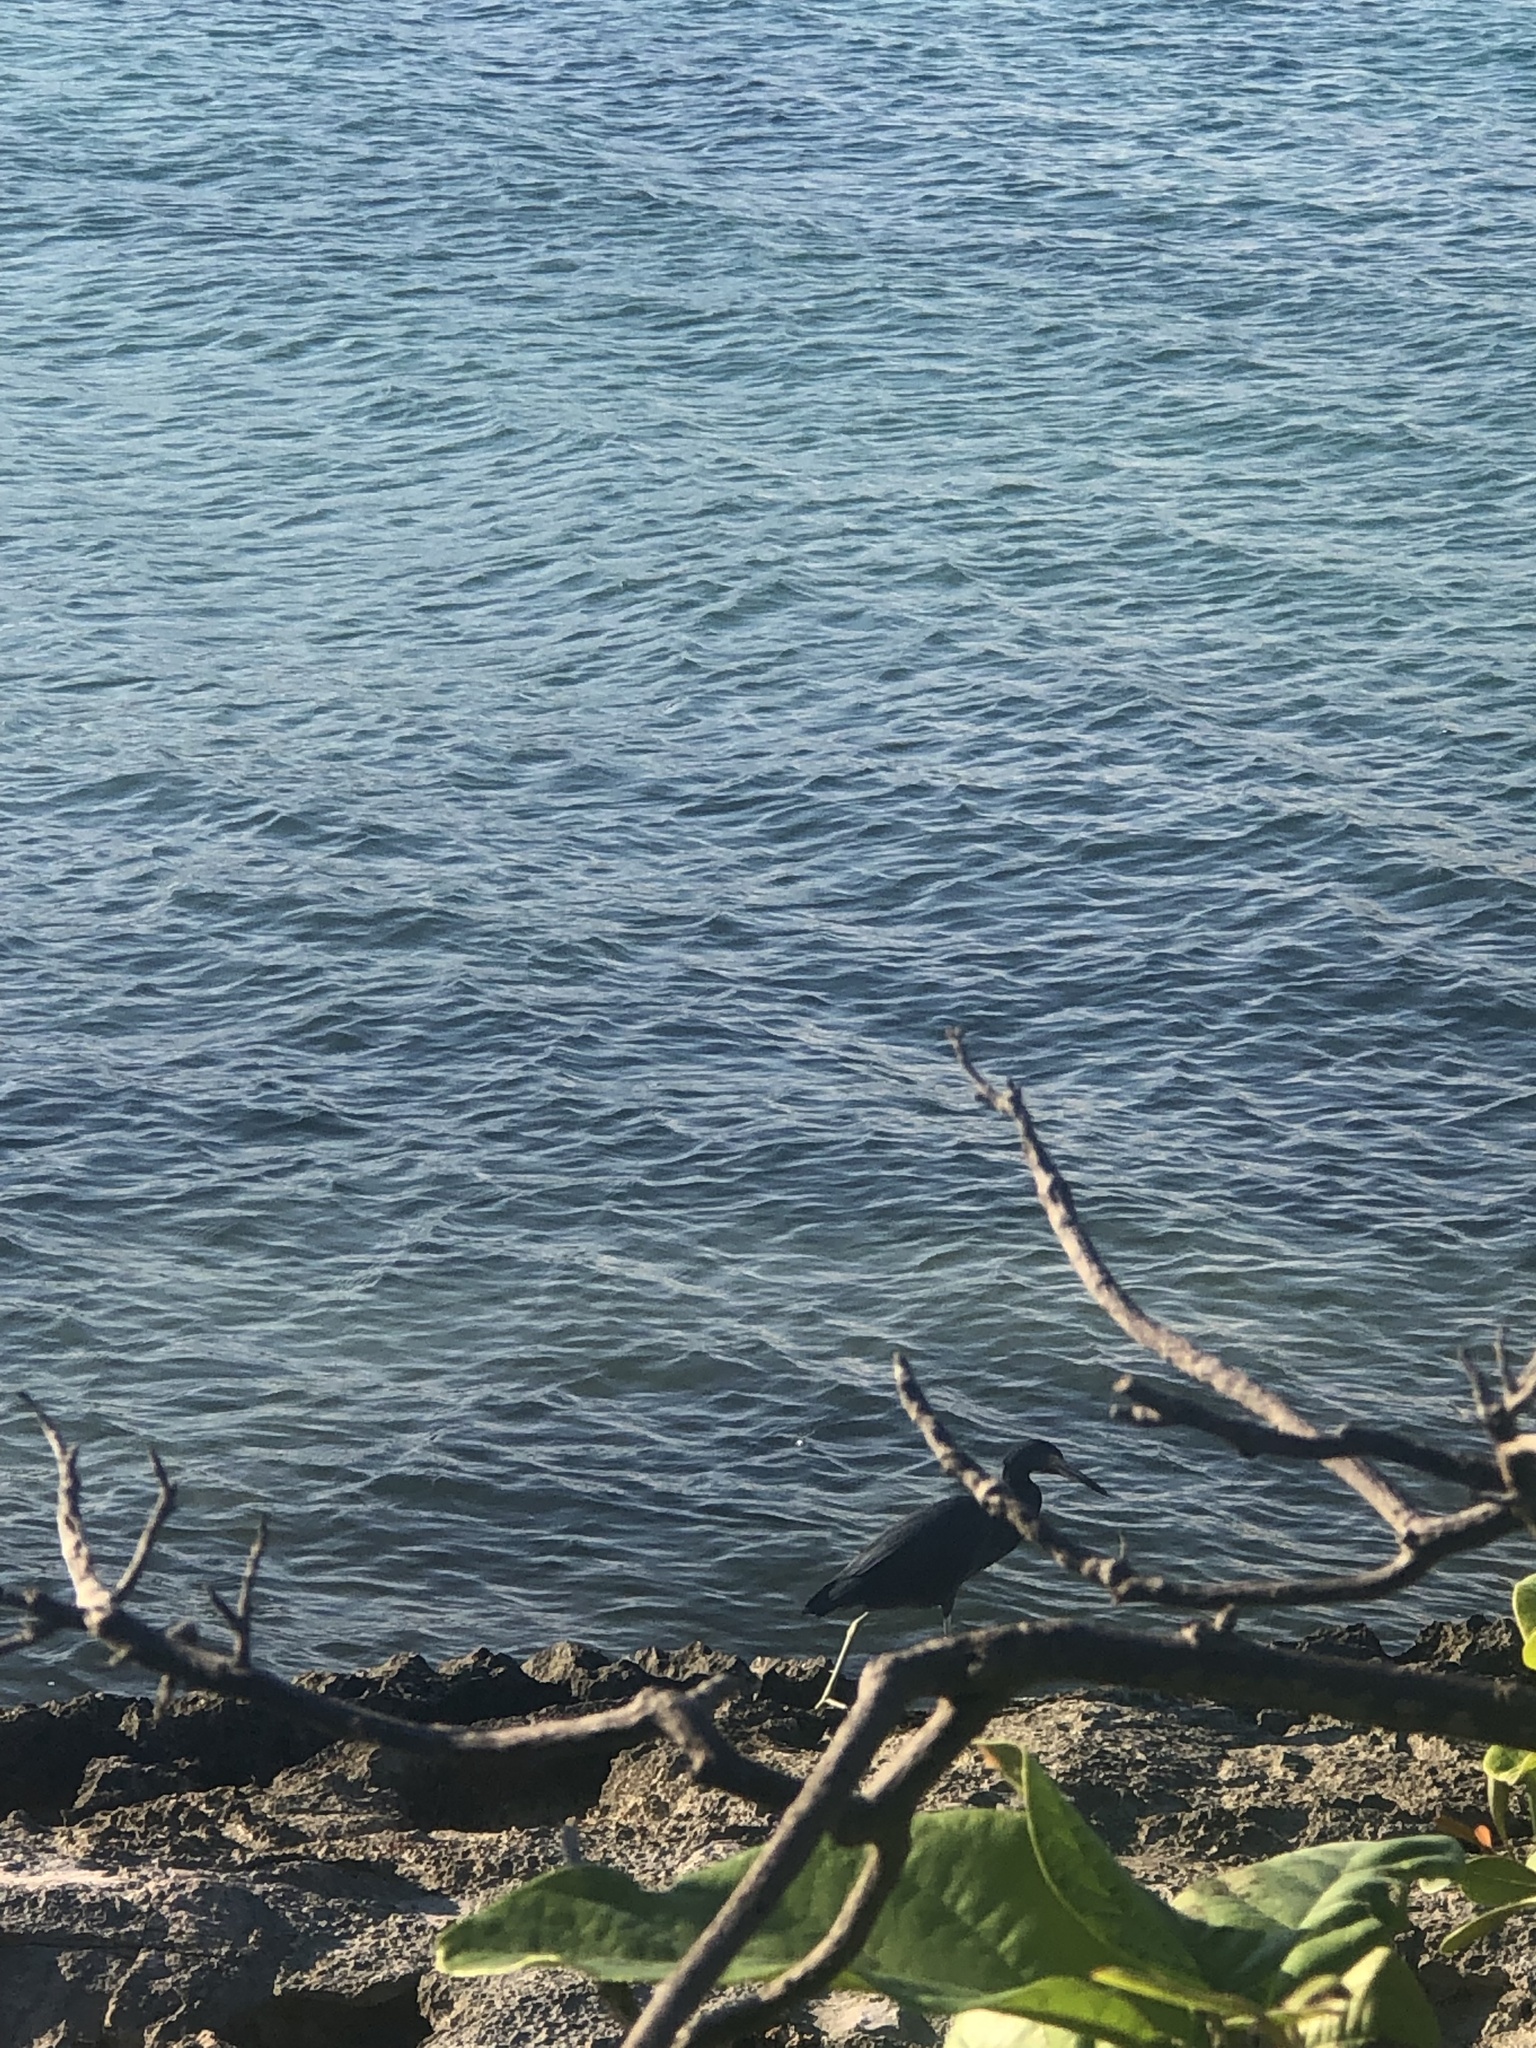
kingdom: Animalia
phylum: Chordata
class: Aves
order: Pelecaniformes
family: Ardeidae
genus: Egretta
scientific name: Egretta caerulea
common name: Little blue heron
